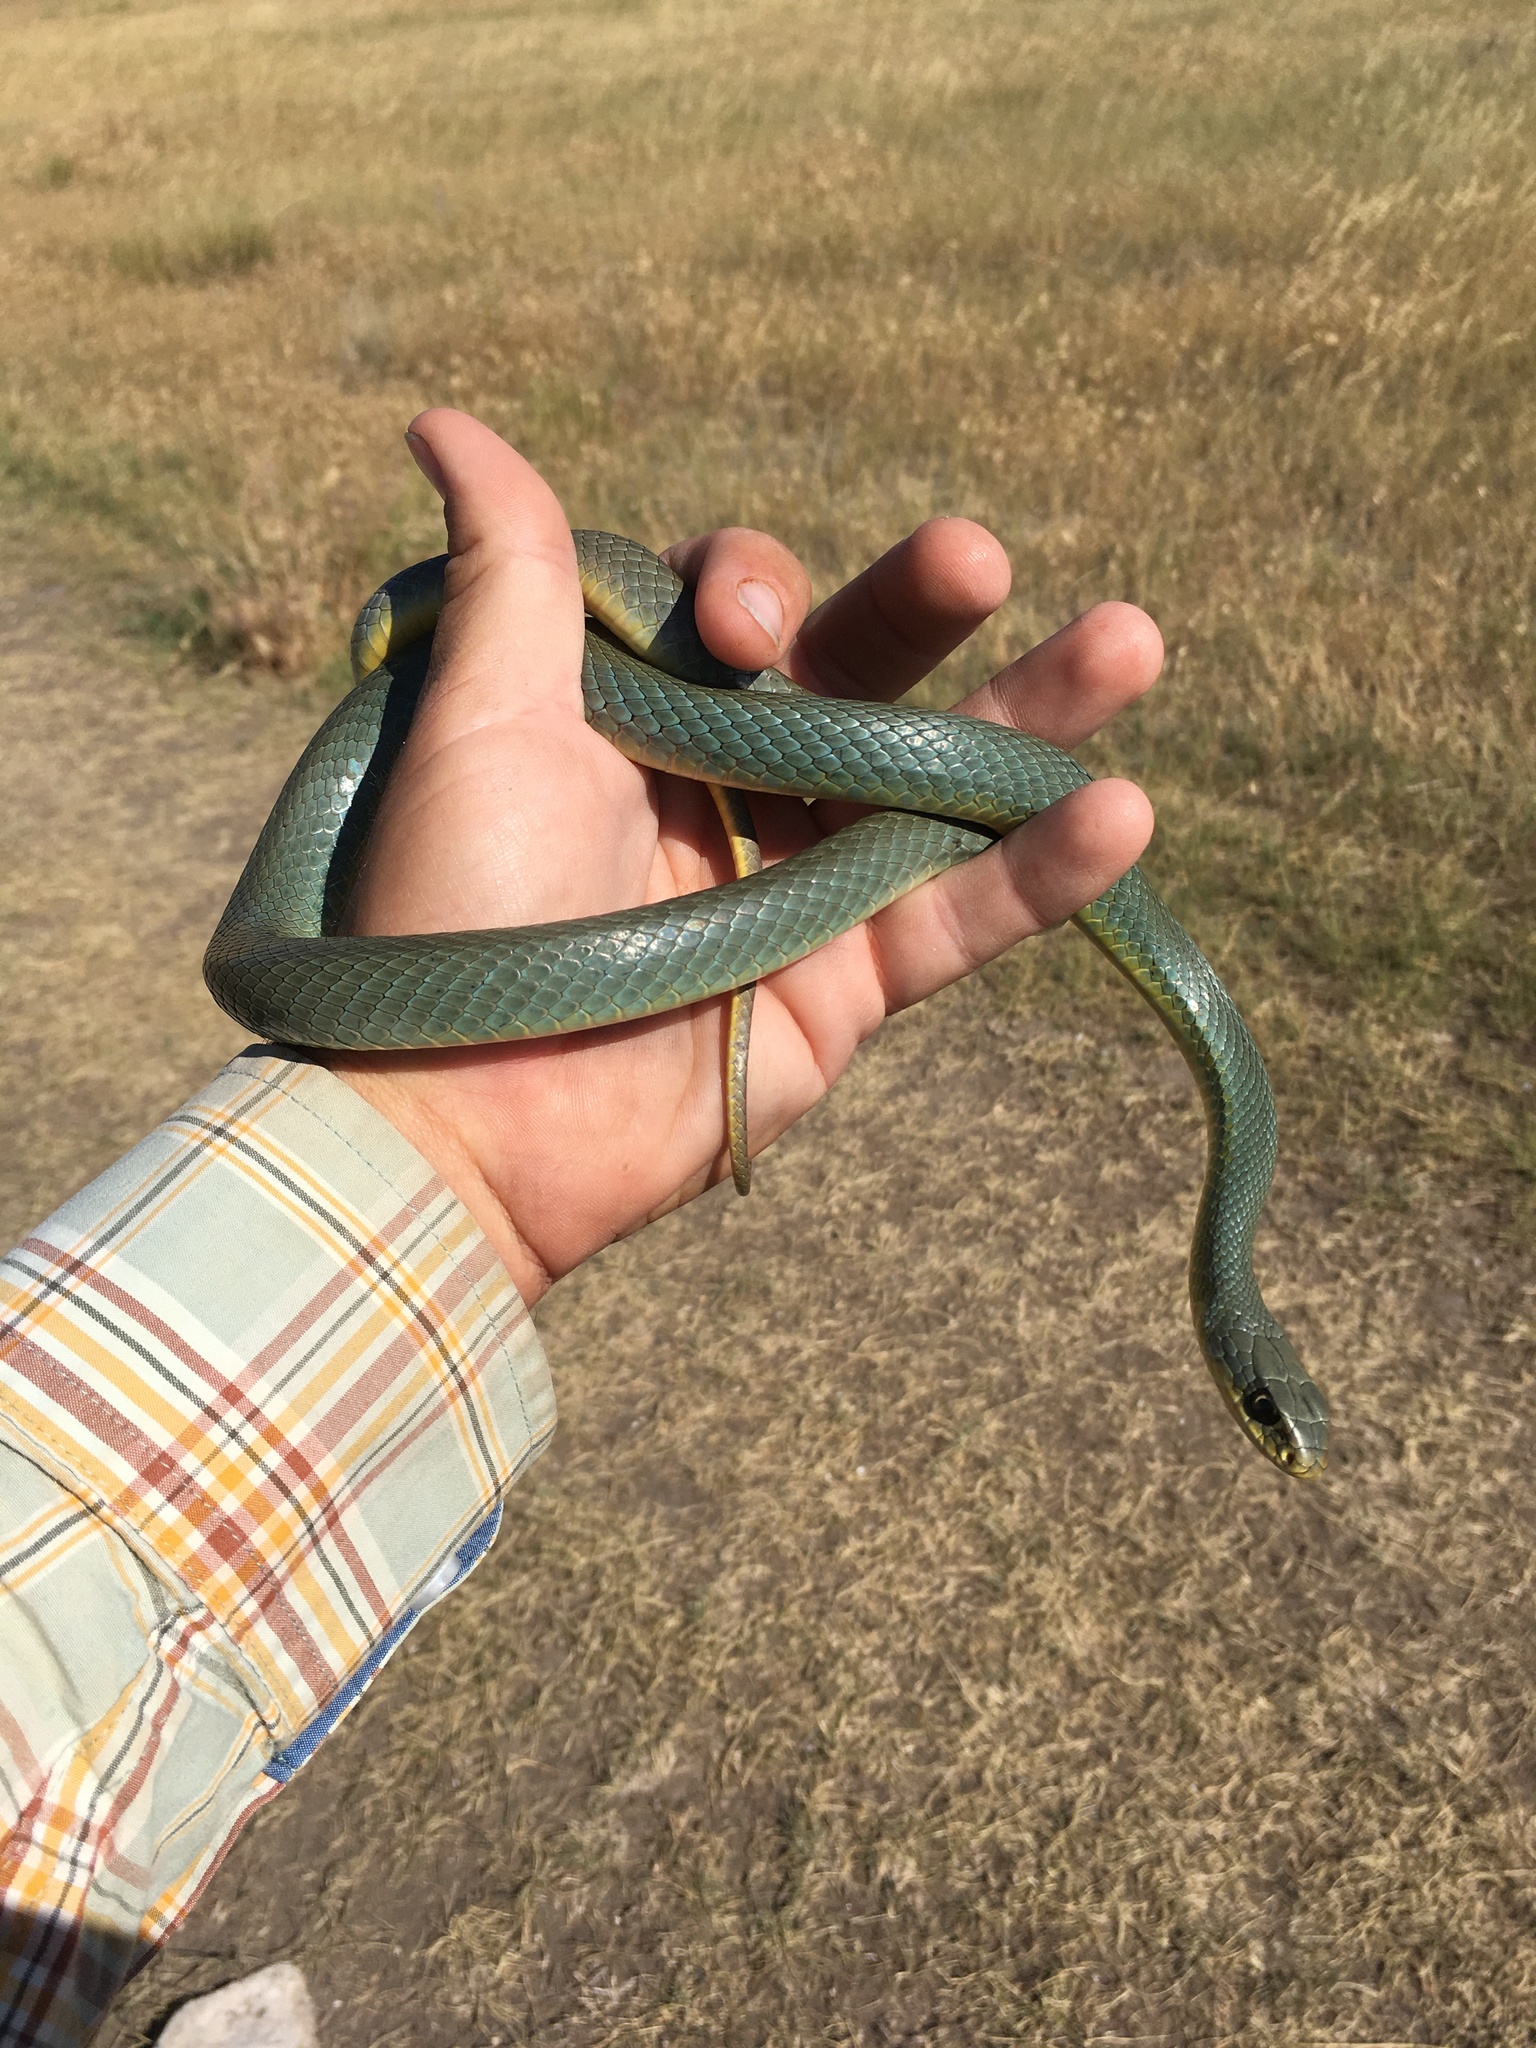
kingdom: Animalia
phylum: Chordata
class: Squamata
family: Colubridae
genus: Coluber
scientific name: Coluber constrictor
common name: Eastern racer
